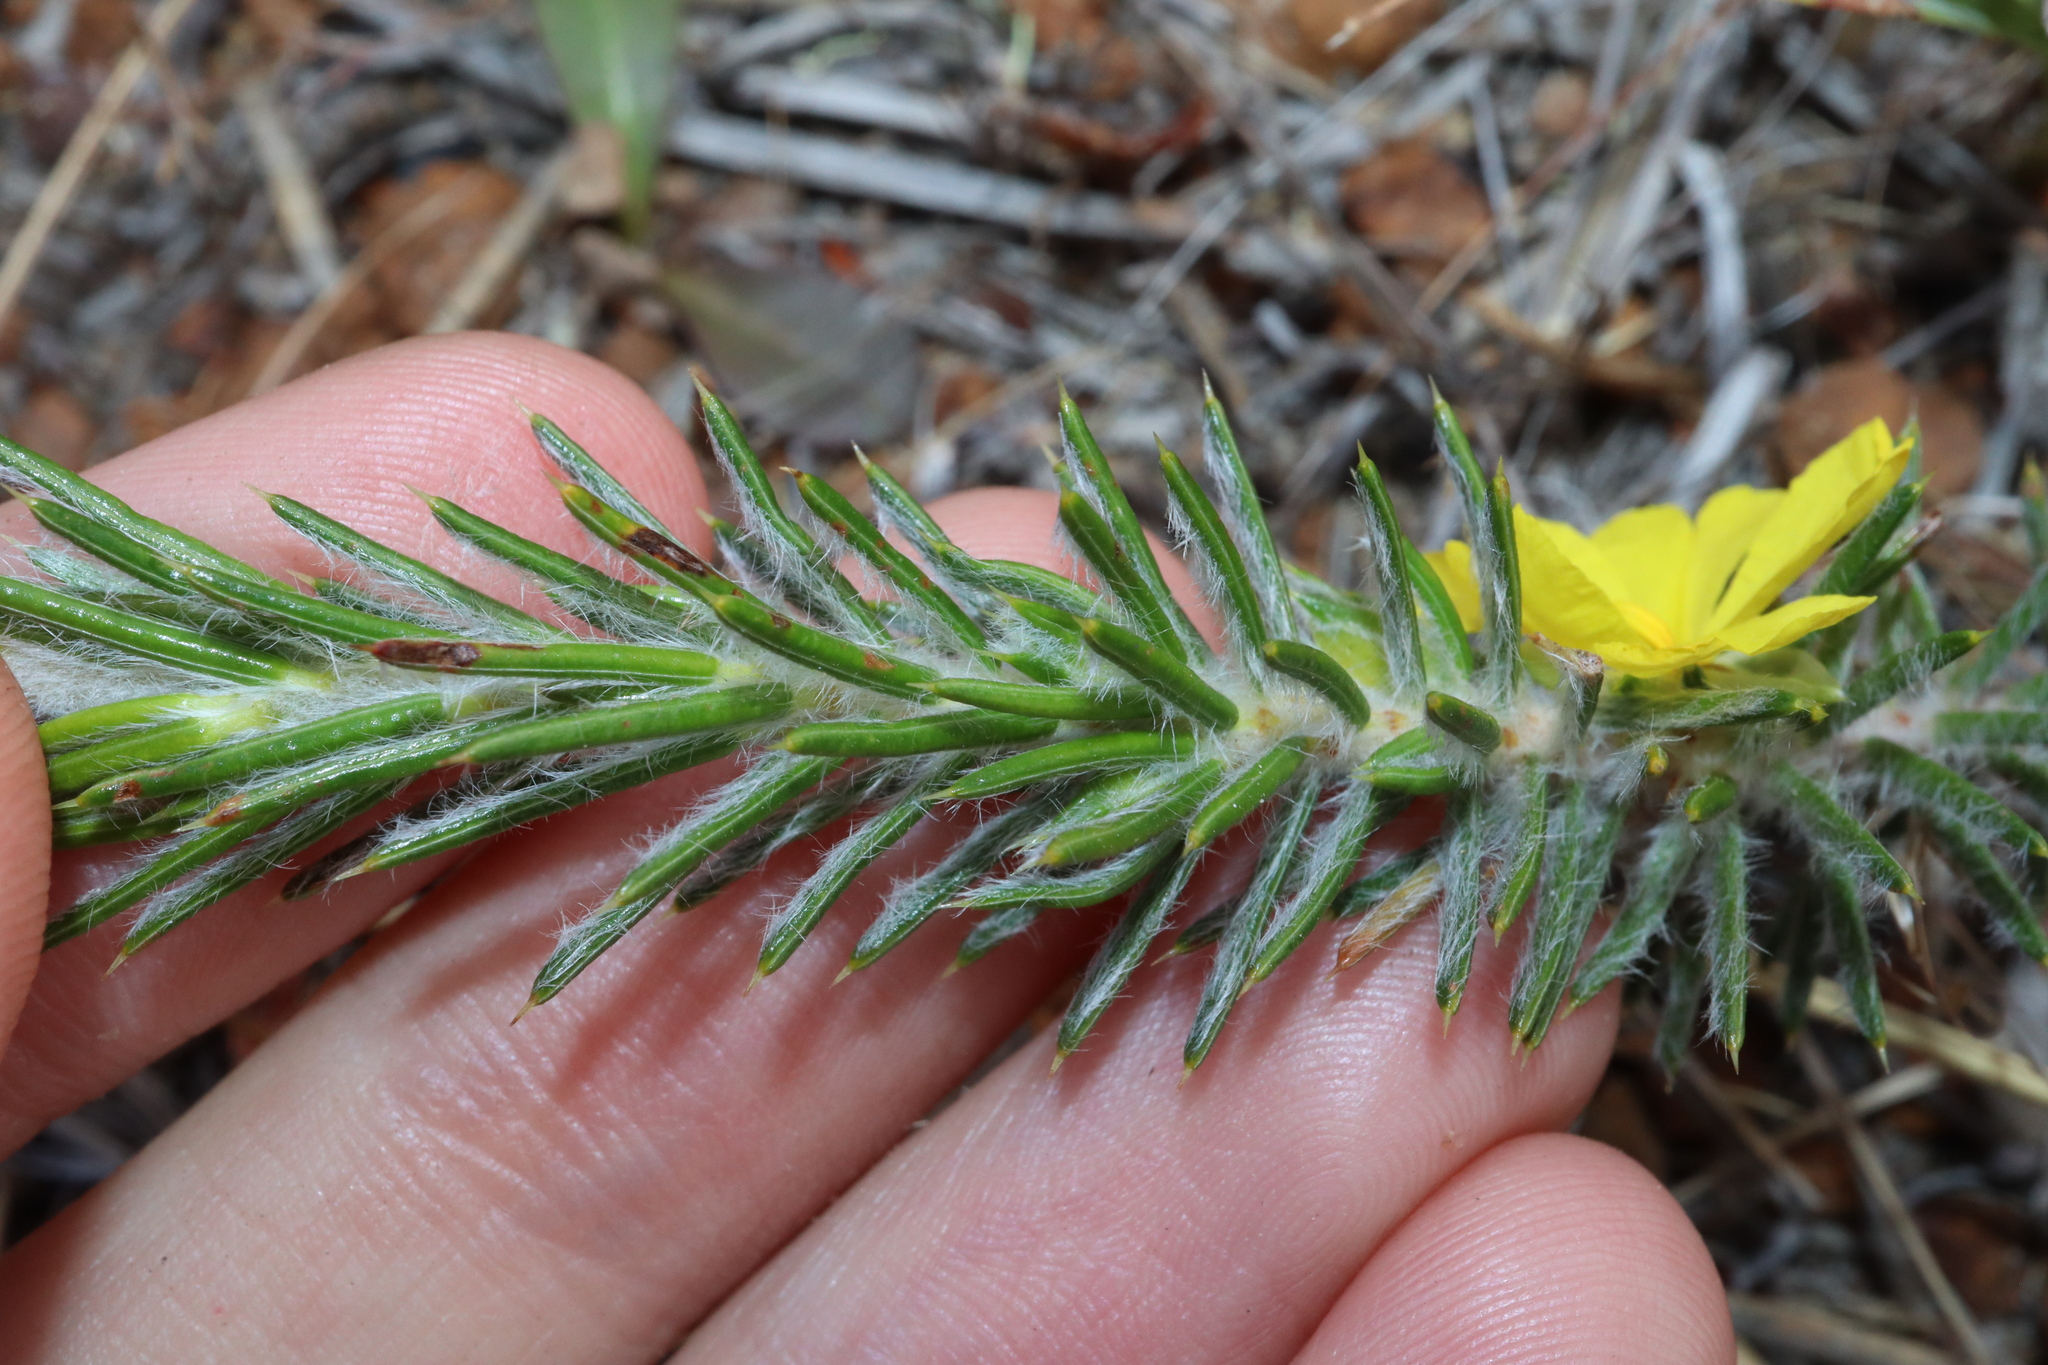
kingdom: Plantae
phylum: Tracheophyta
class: Magnoliopsida
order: Dilleniales
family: Dilleniaceae
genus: Hibbertia
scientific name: Hibbertia mucronata
